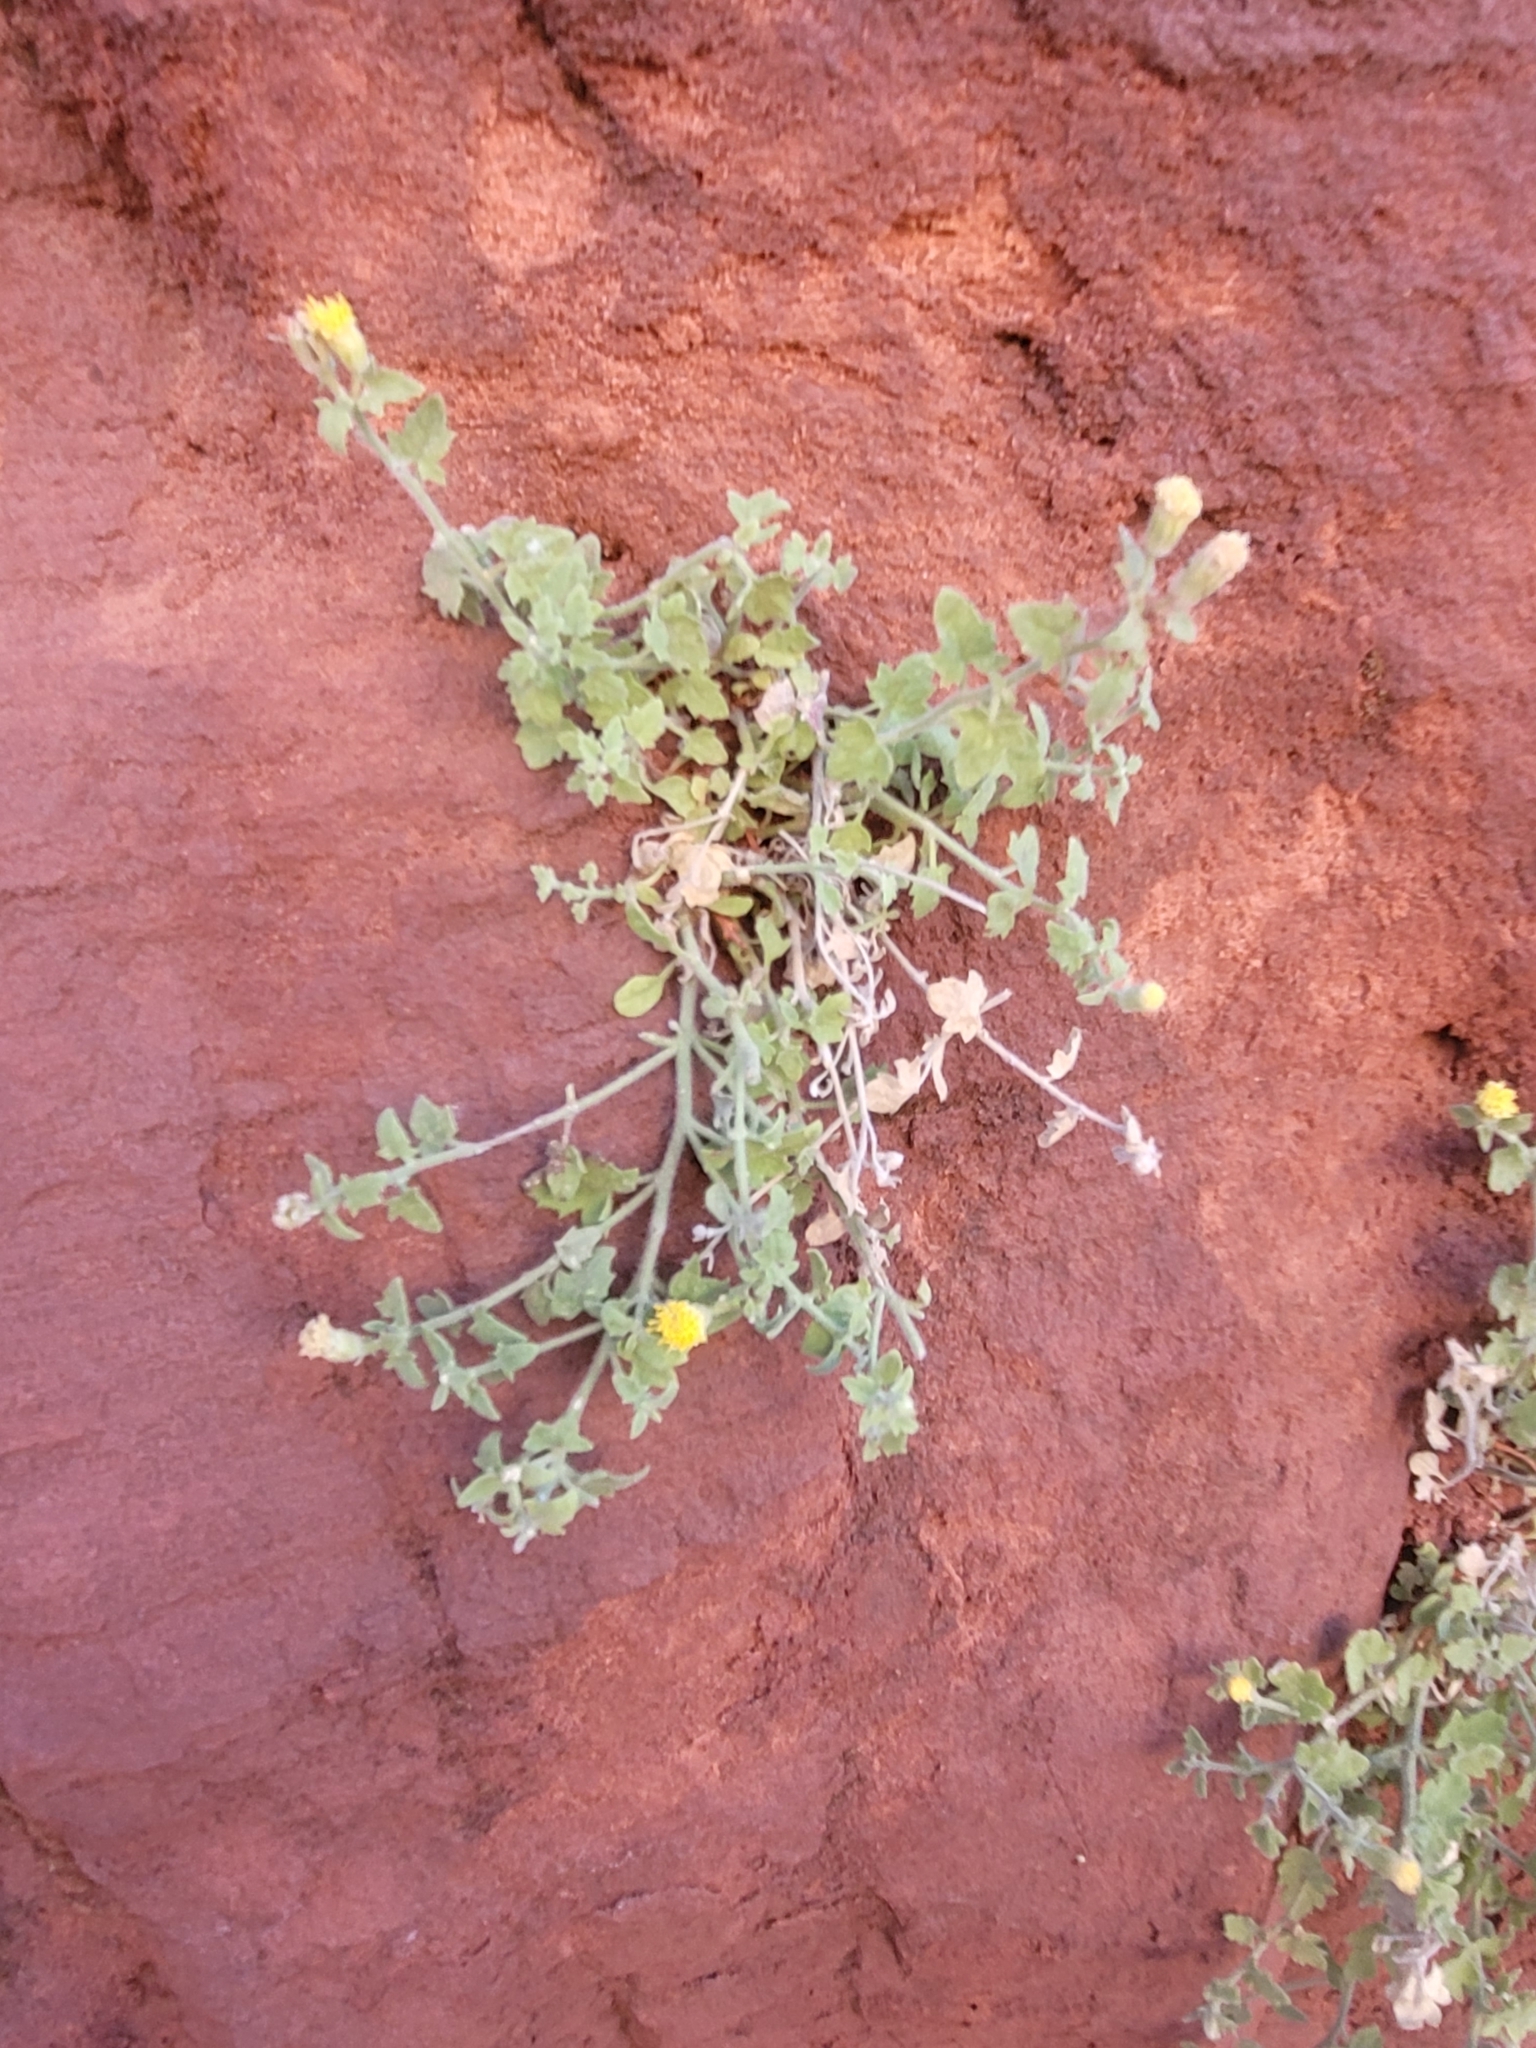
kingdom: Plantae
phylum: Tracheophyta
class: Magnoliopsida
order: Asterales
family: Asteraceae
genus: Laphamia
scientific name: Laphamia sanchezii
